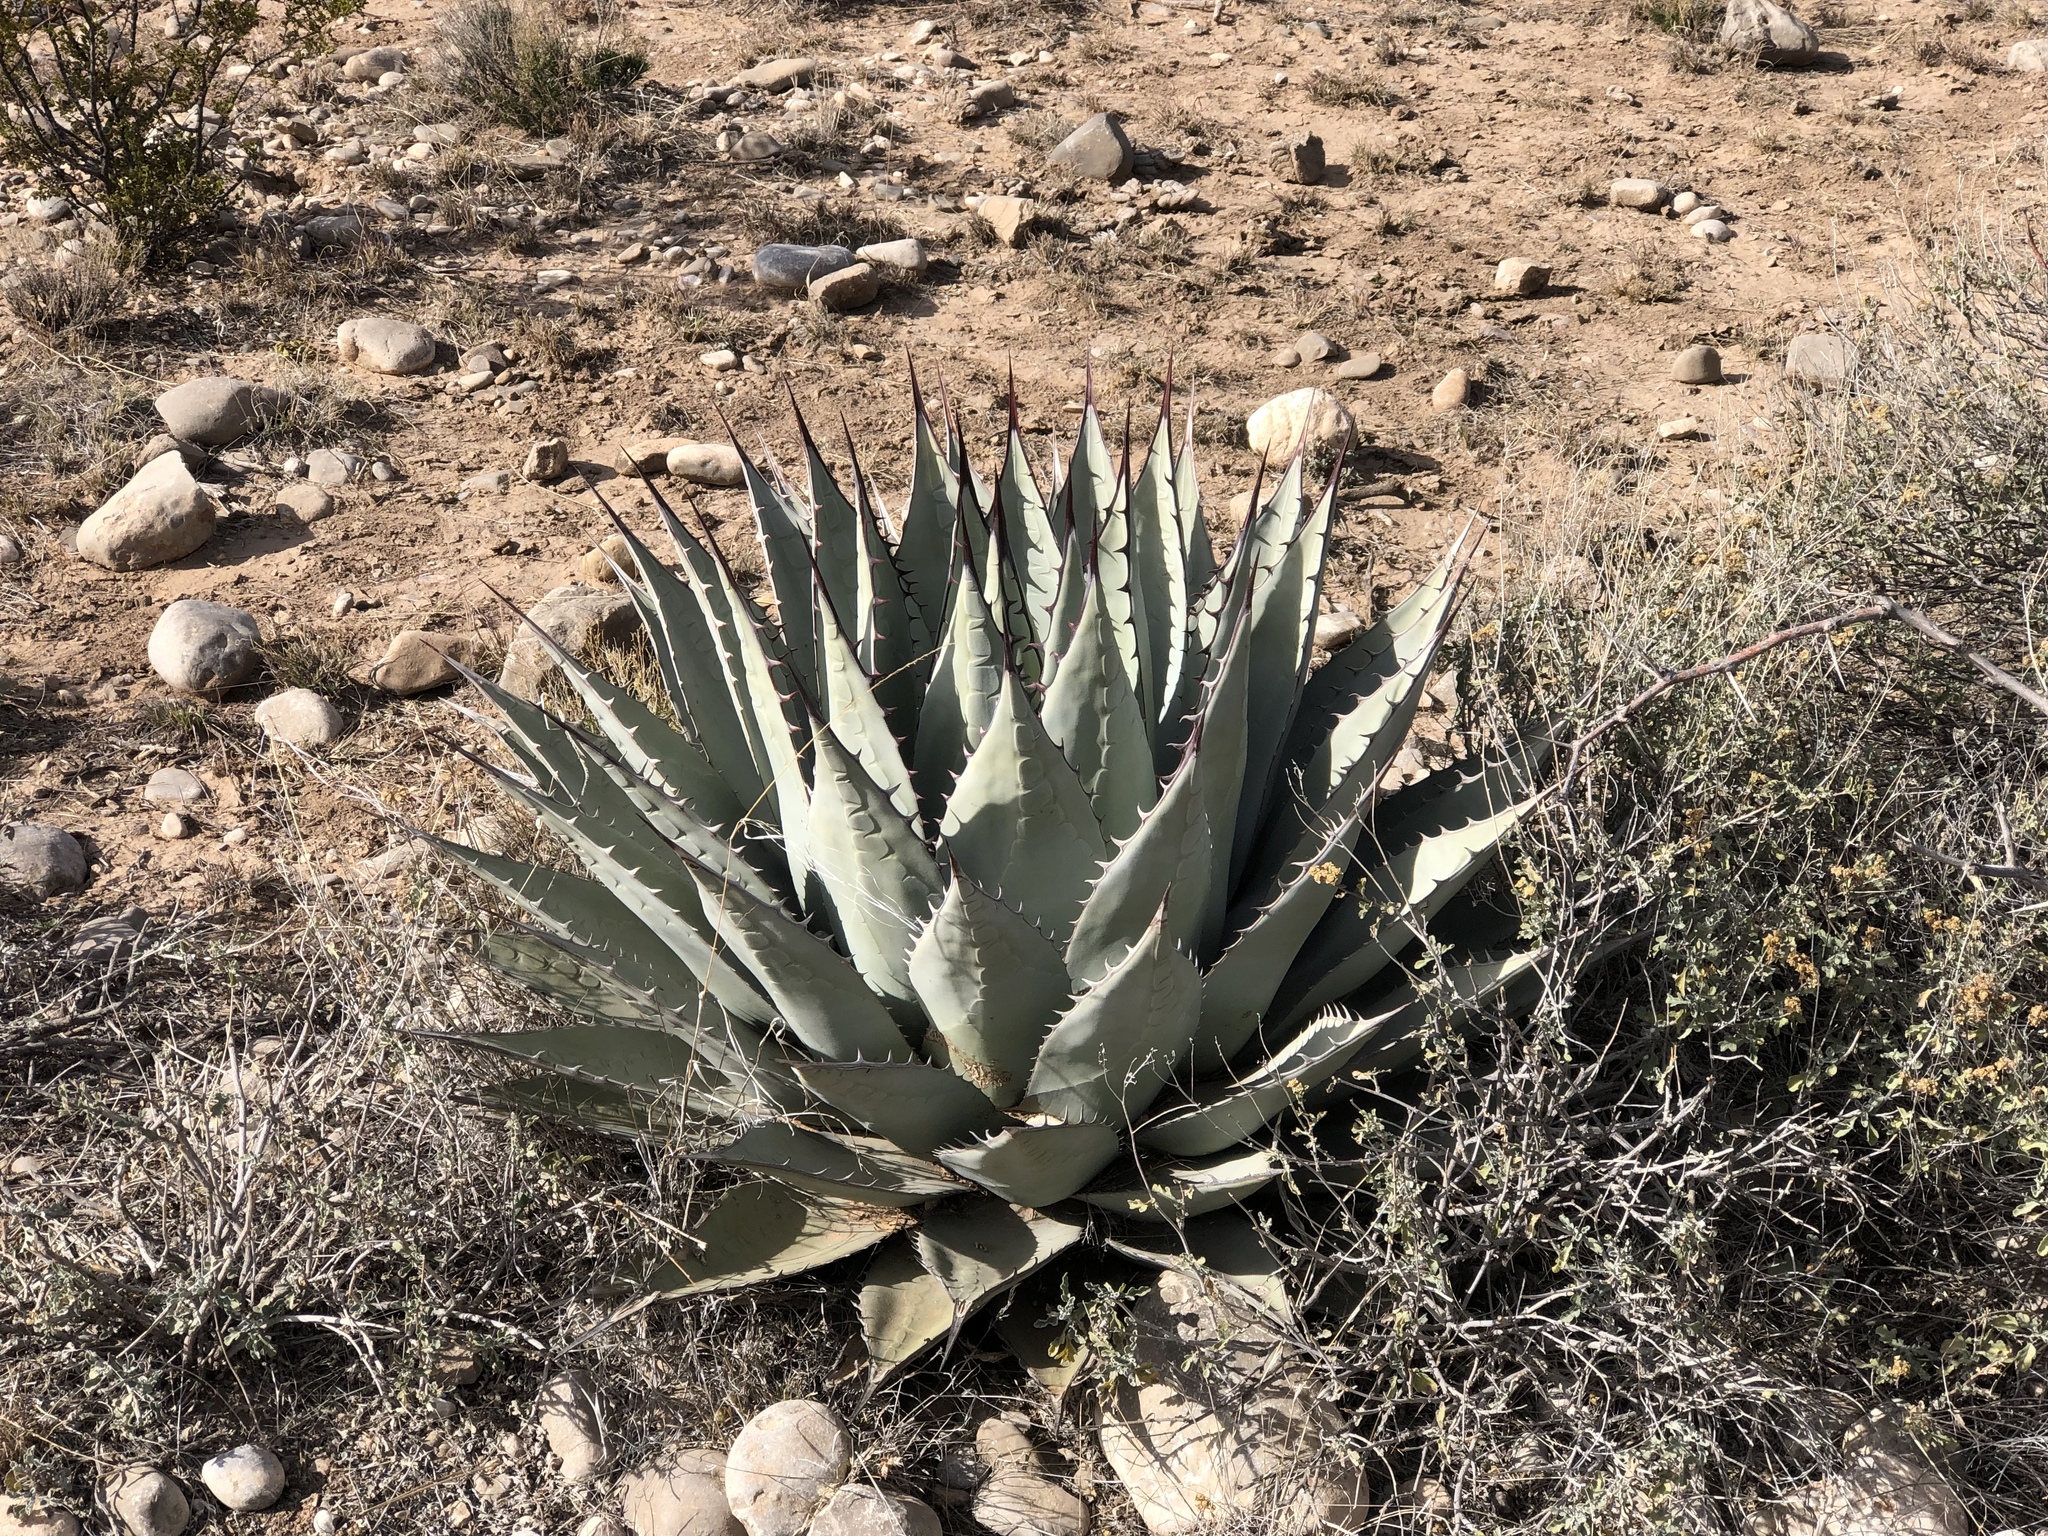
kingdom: Plantae
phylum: Tracheophyta
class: Liliopsida
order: Asparagales
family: Asparagaceae
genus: Agave
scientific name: Agave parryi
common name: Parry's agave
